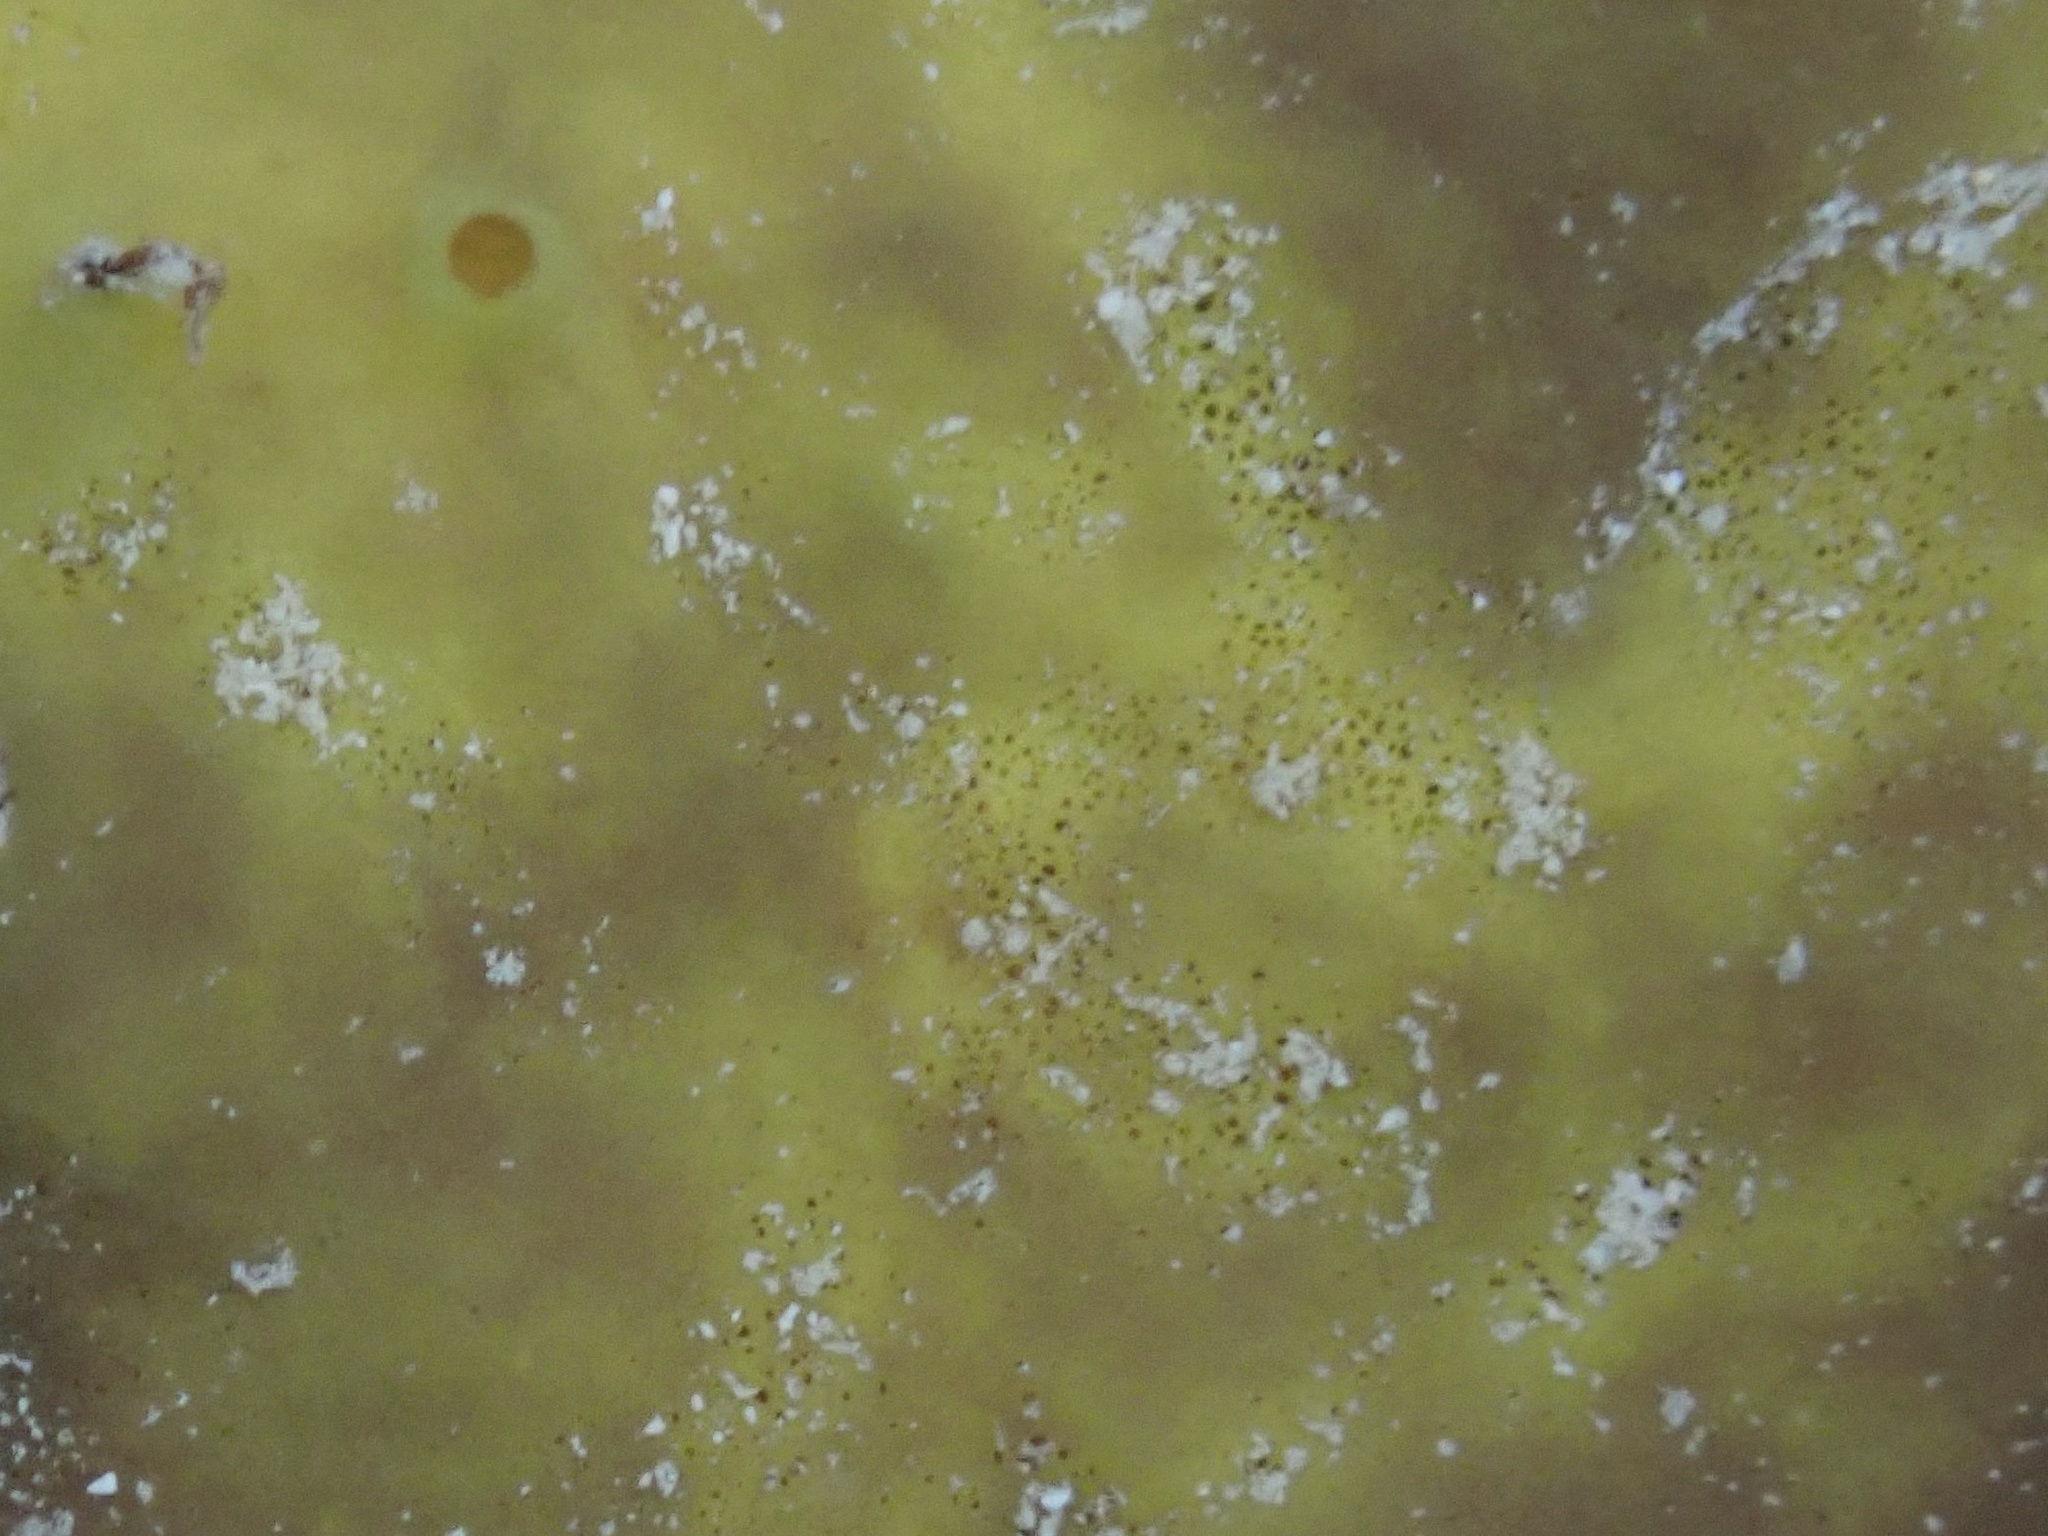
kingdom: Animalia
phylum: Porifera
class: Demospongiae
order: Verongiida
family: Aplysinidae
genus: Aiolochroia
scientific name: Aiolochroia crassa
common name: Branching tube sponge
